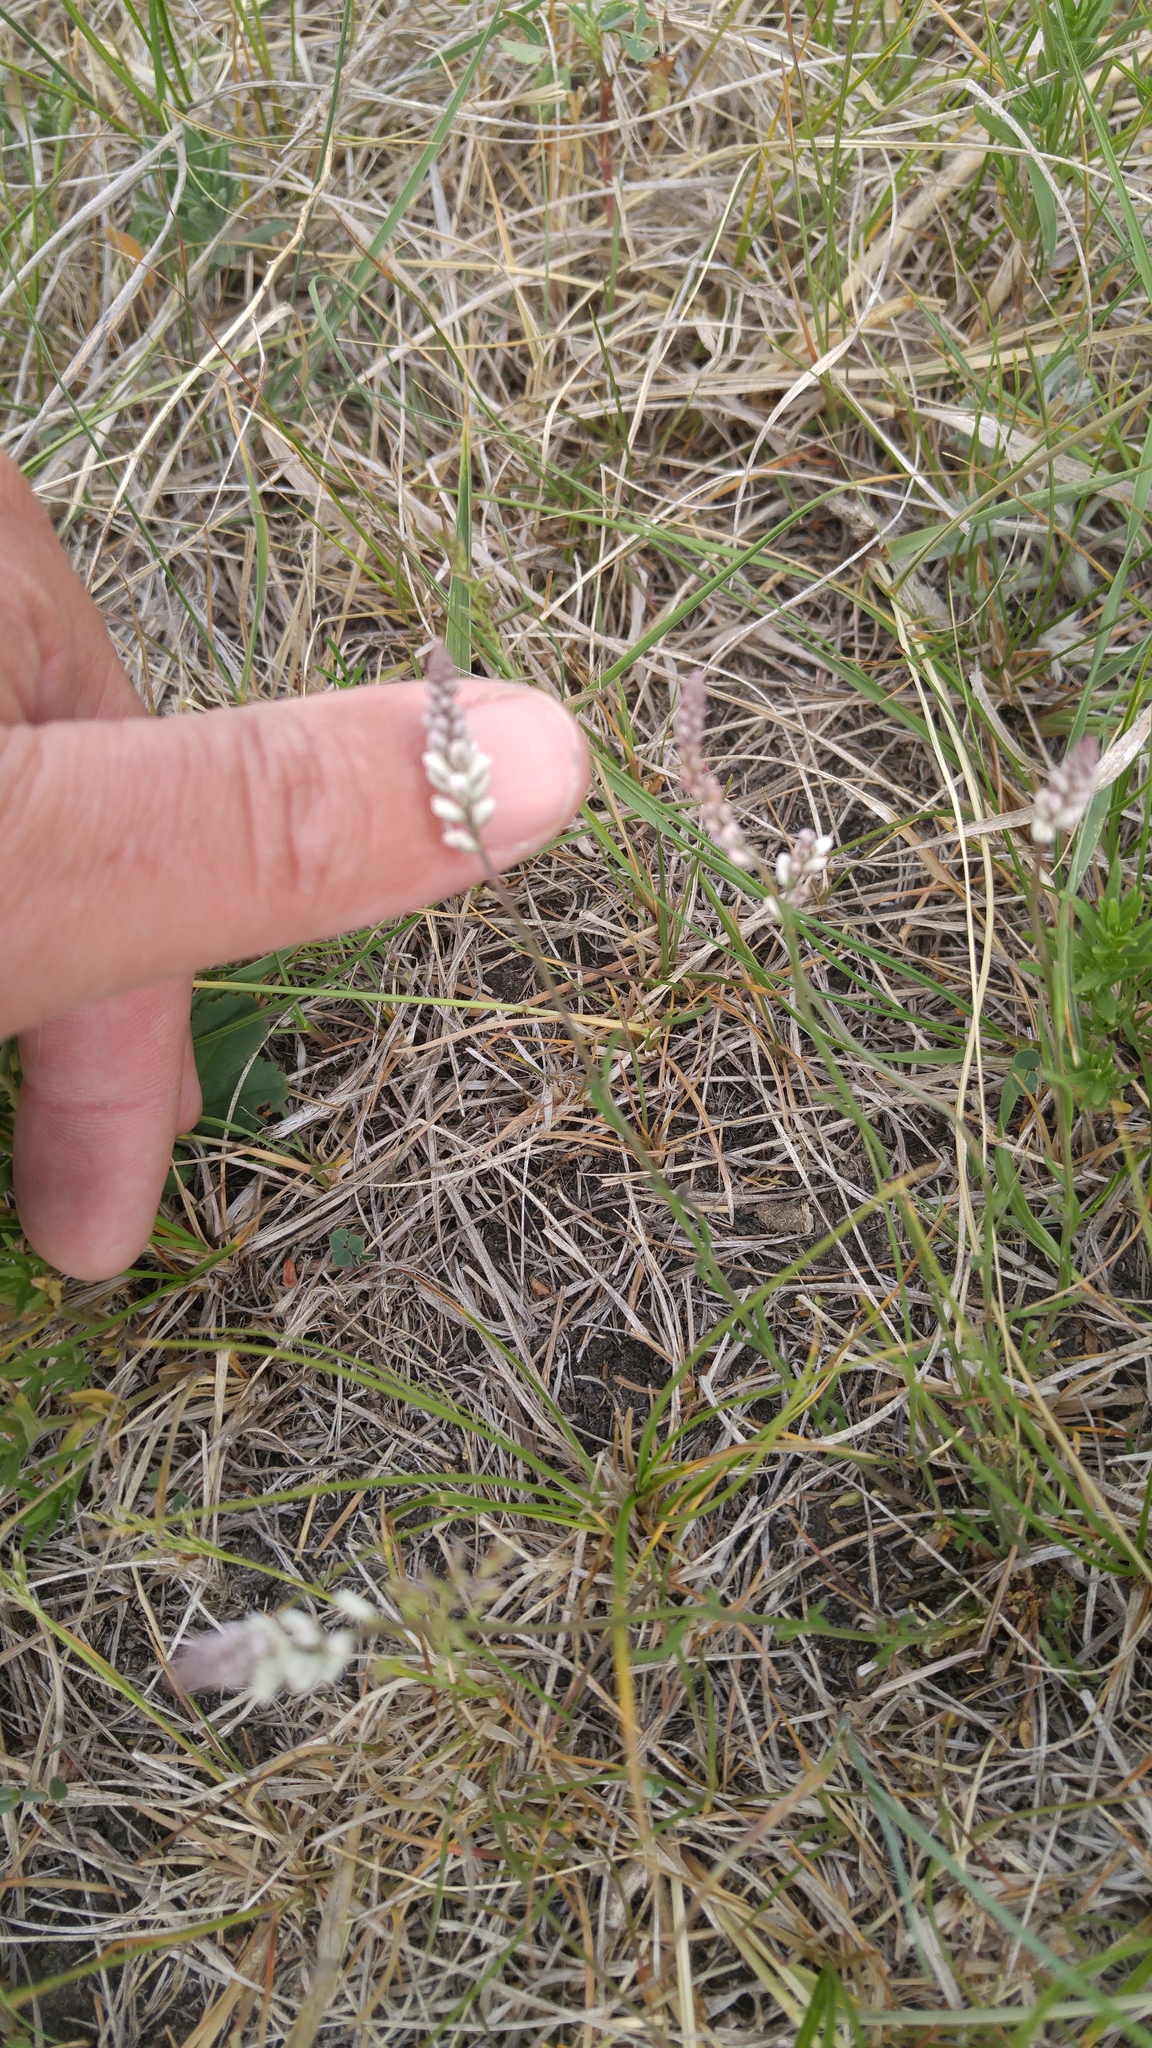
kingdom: Plantae
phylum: Tracheophyta
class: Magnoliopsida
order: Fabales
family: Polygalaceae
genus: Polygala
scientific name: Polygala alba
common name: White milkwort
